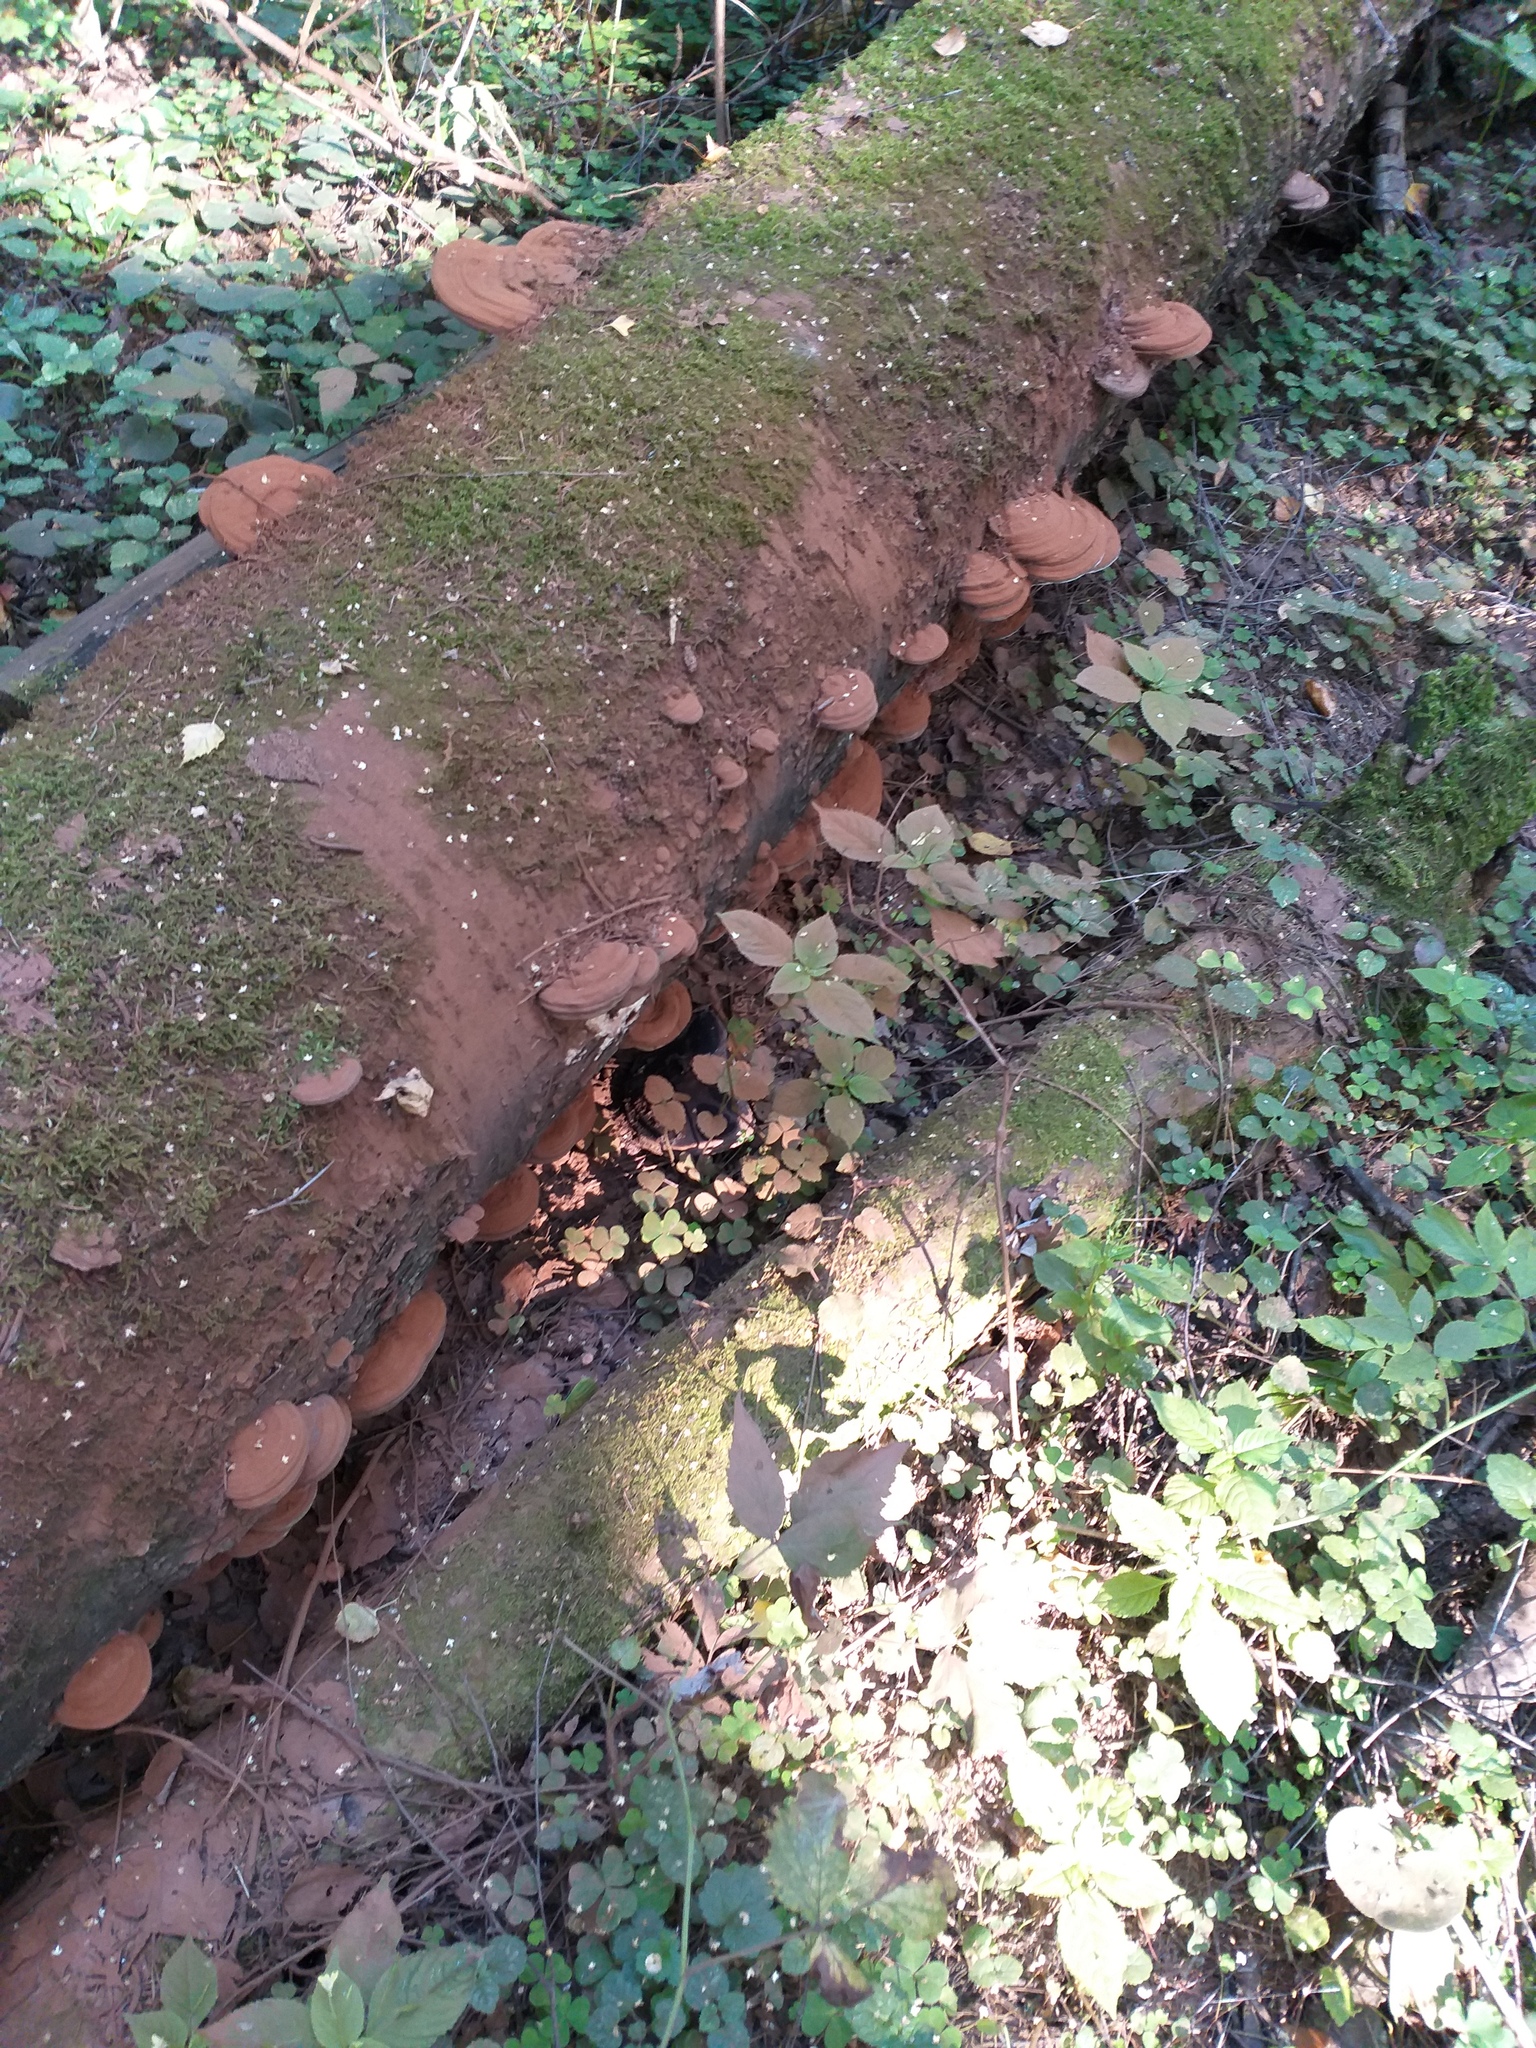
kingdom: Fungi
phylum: Basidiomycota
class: Agaricomycetes
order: Polyporales
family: Polyporaceae
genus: Ganoderma
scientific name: Ganoderma applanatum
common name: Artist's bracket
